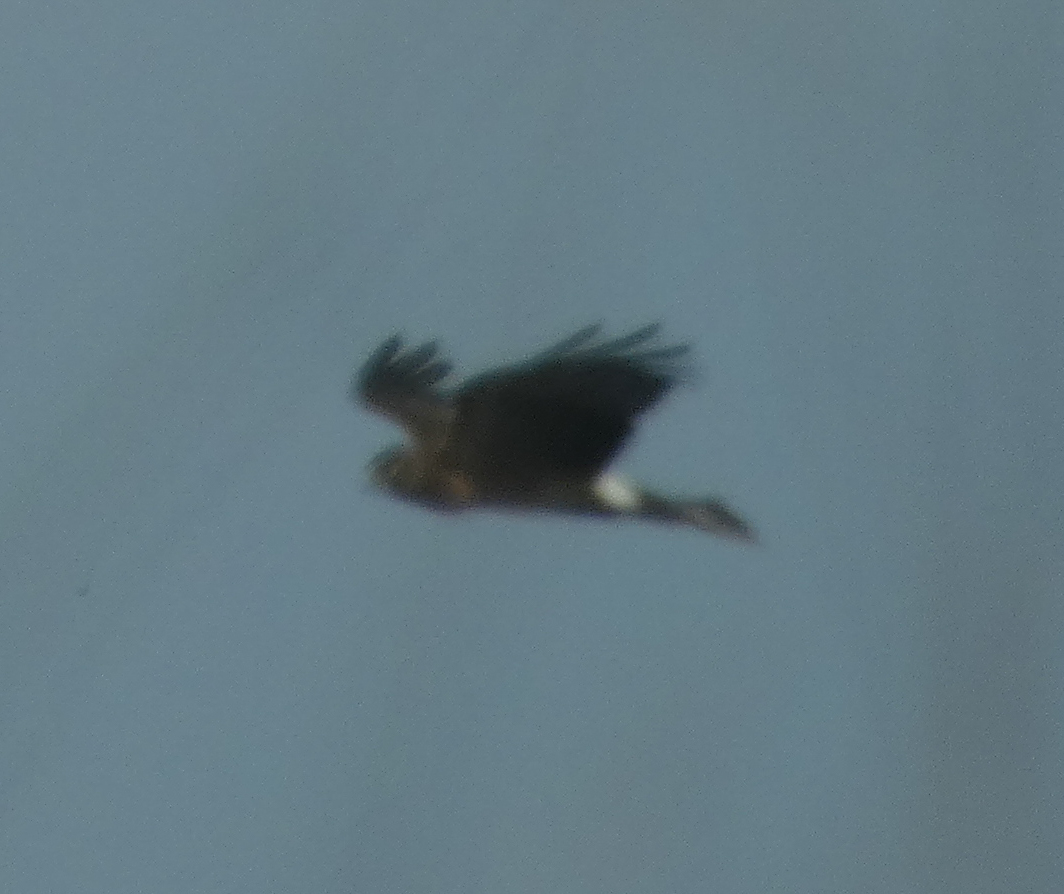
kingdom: Animalia
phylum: Chordata
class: Aves
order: Accipitriformes
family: Accipitridae
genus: Circus
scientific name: Circus cyaneus
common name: Hen harrier
